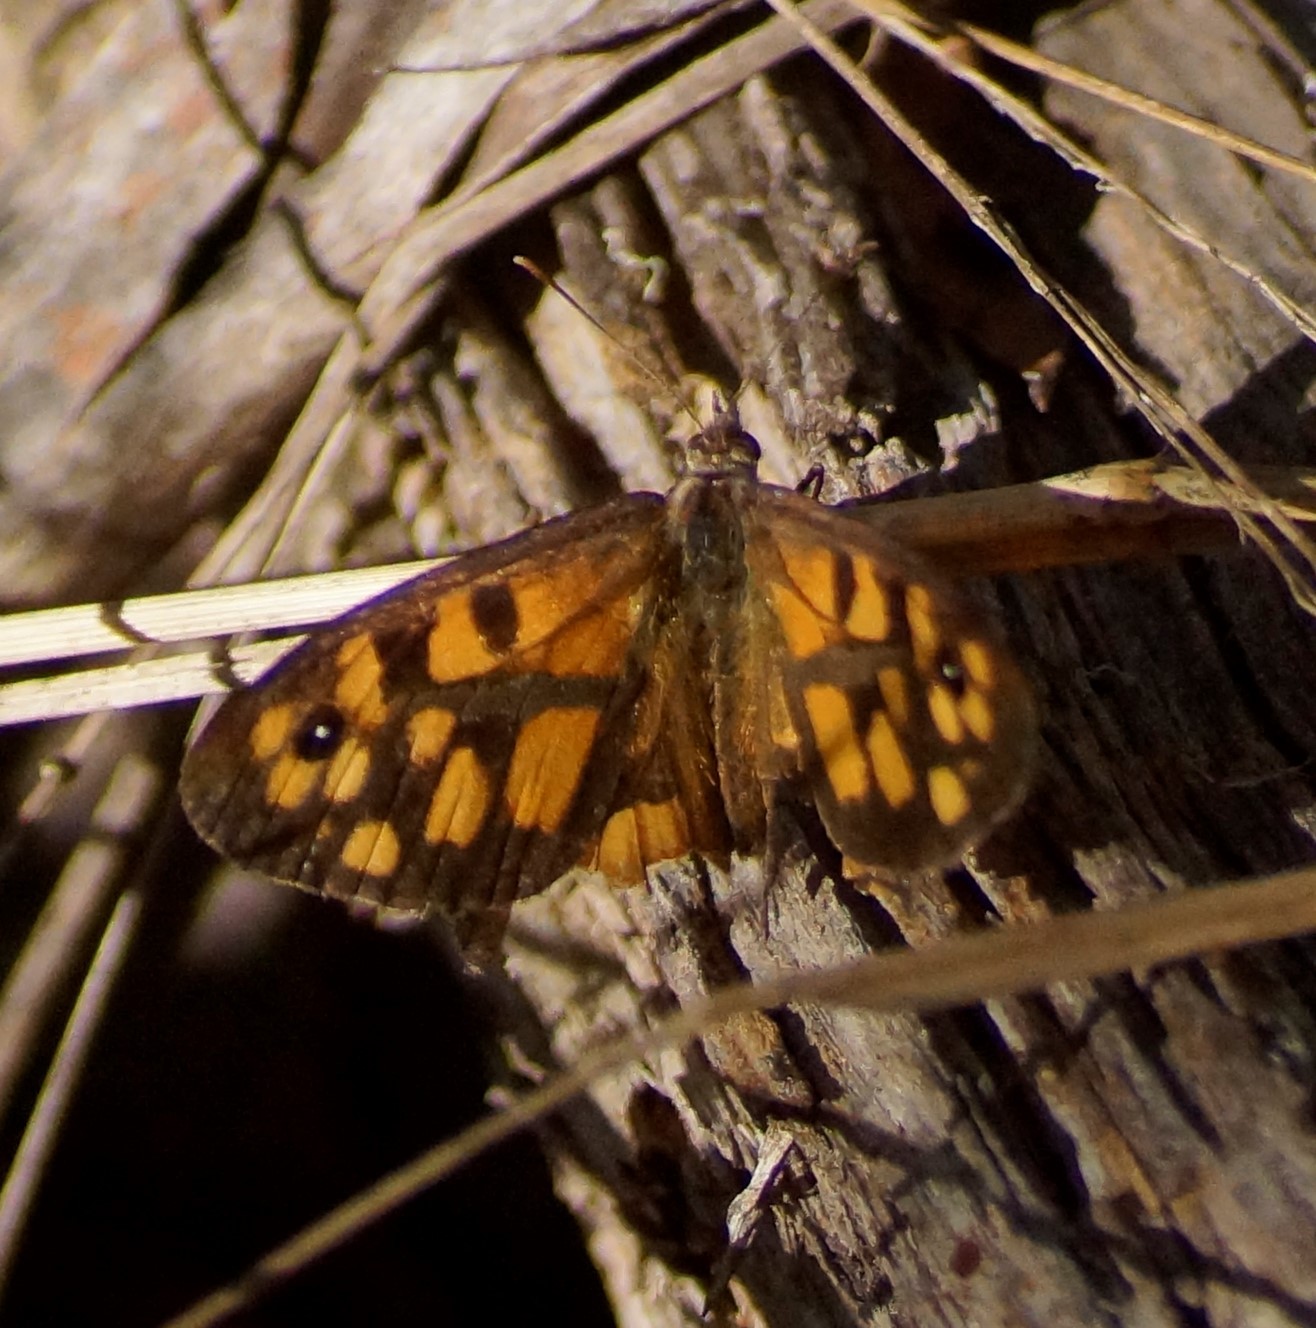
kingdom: Animalia
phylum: Arthropoda
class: Insecta
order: Lepidoptera
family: Nymphalidae
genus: Geitoneura
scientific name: Geitoneura klugii
